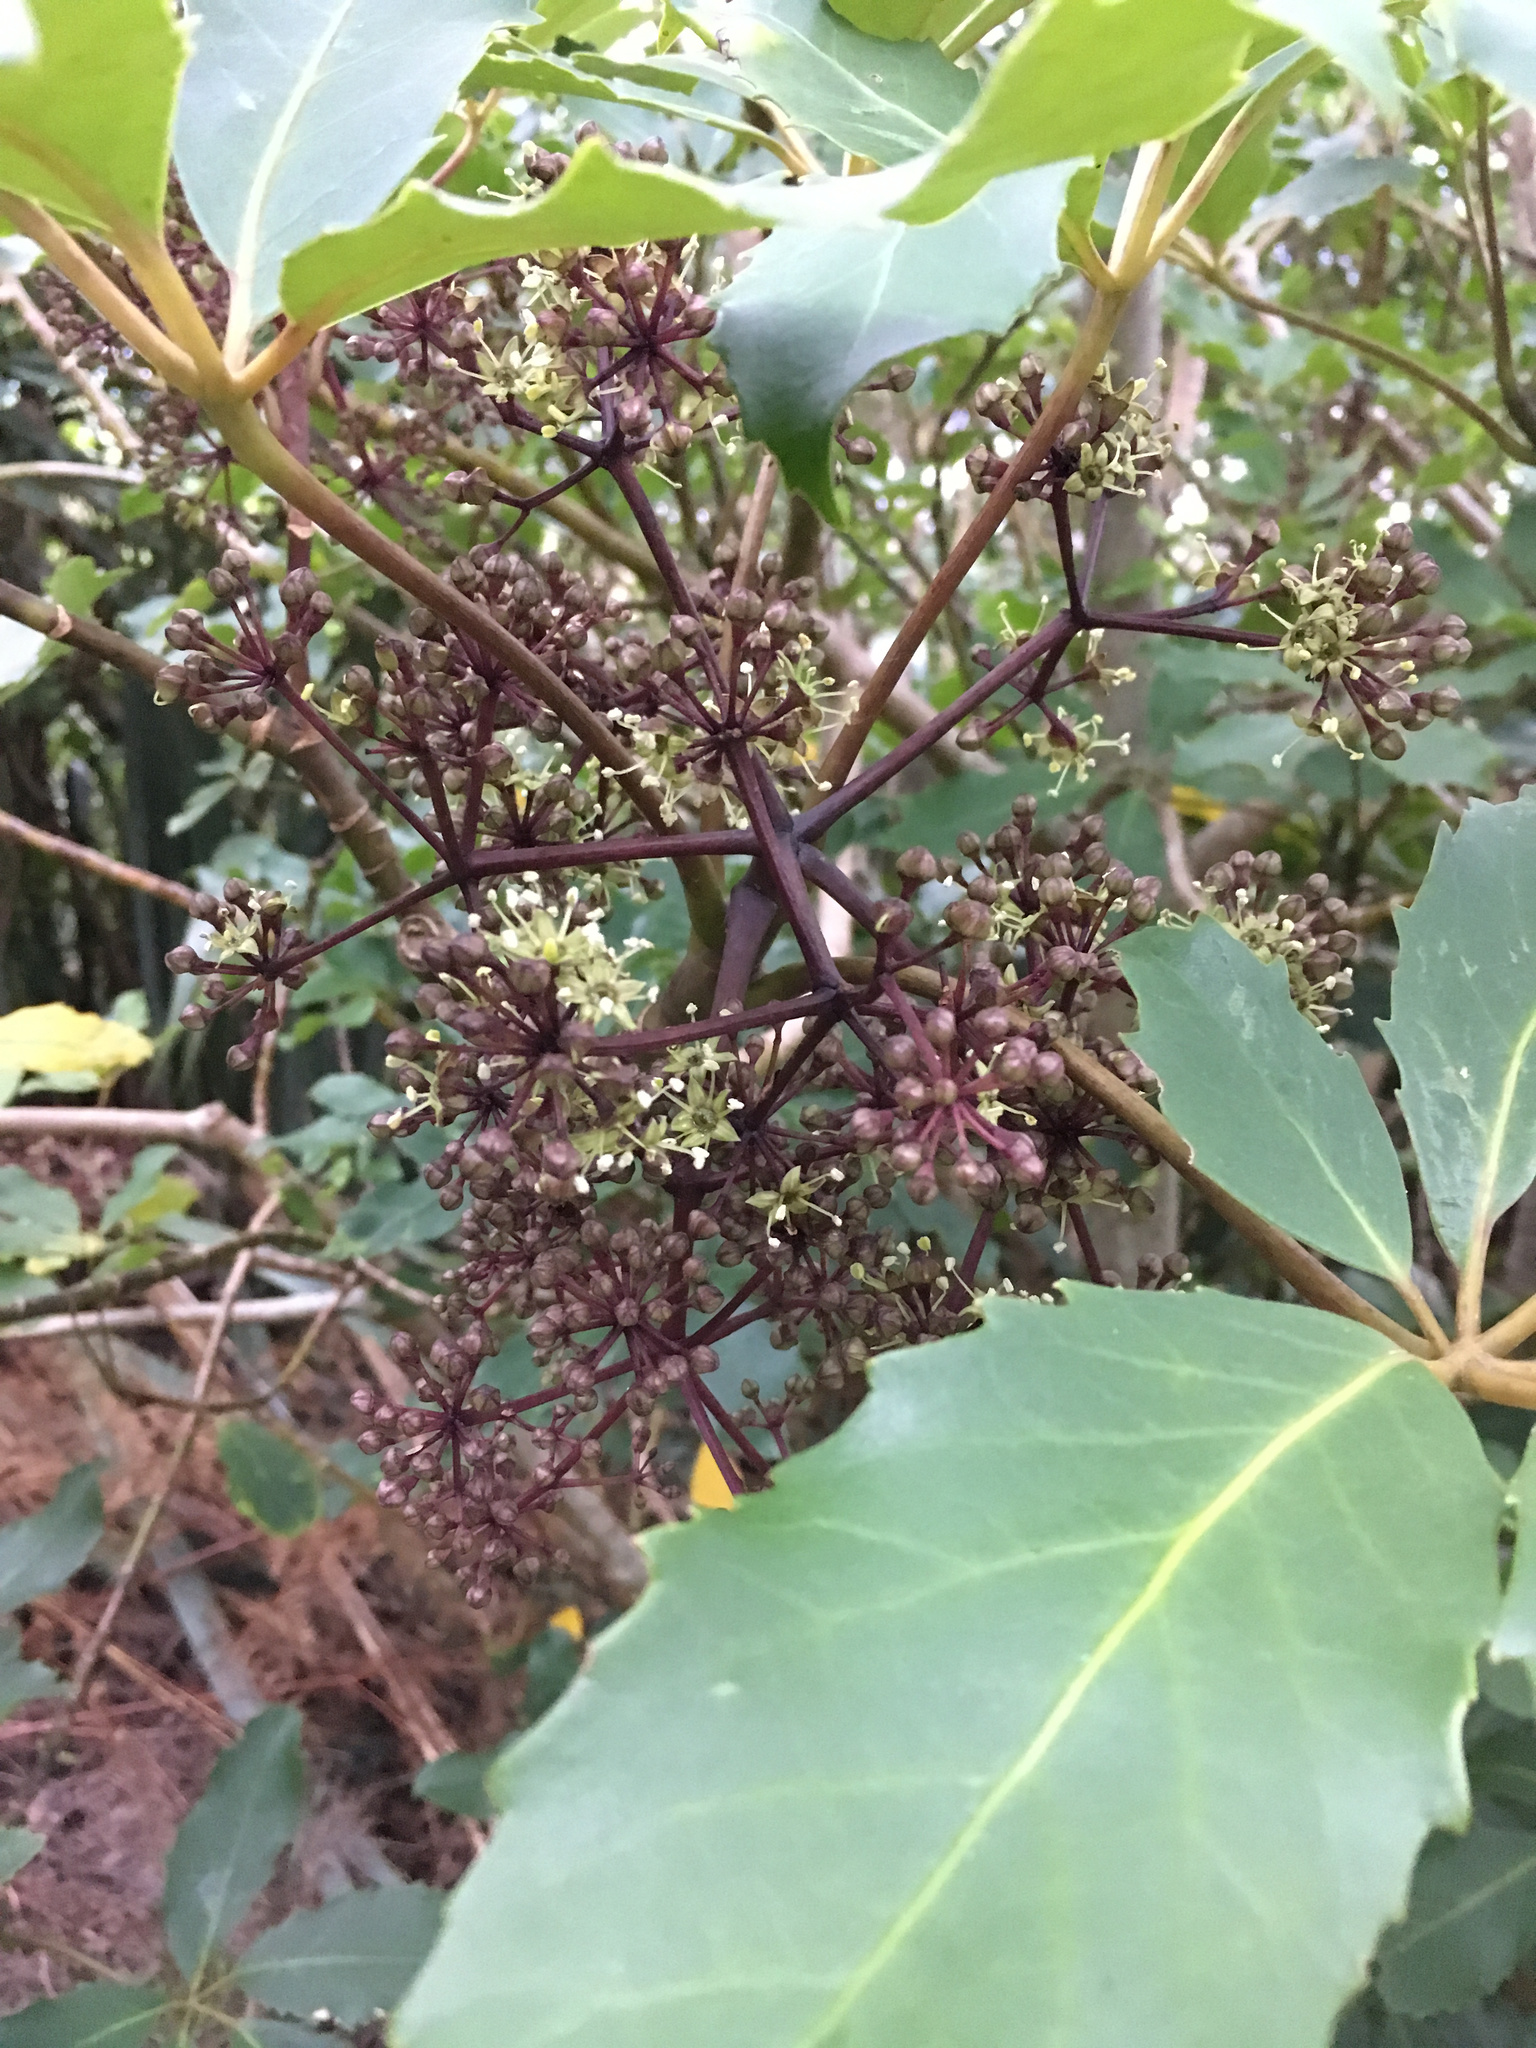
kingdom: Plantae
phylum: Tracheophyta
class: Magnoliopsida
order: Apiales
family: Araliaceae
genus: Neopanax
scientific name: Neopanax arboreus
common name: Five-fingers
